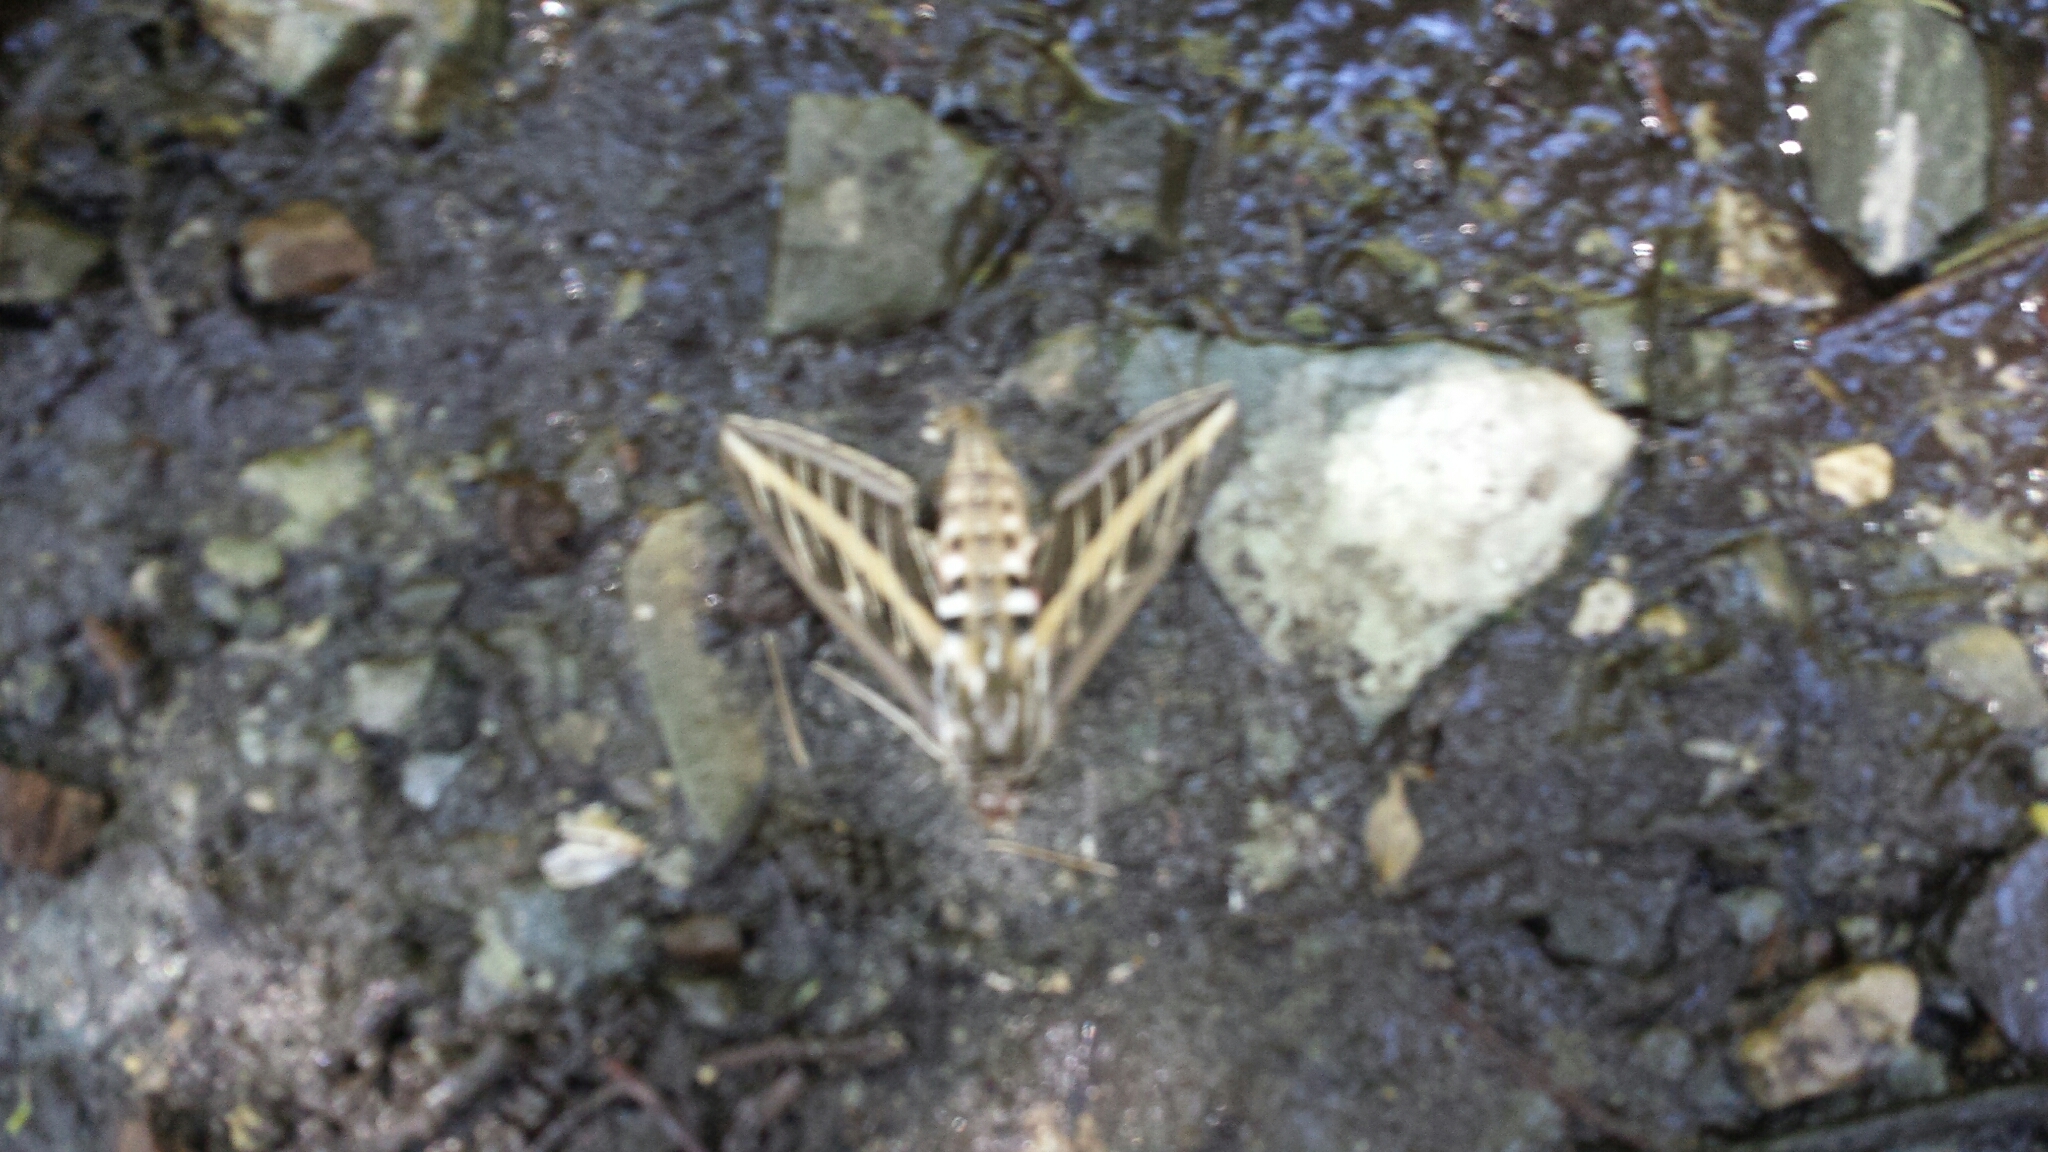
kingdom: Animalia
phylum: Arthropoda
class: Insecta
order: Lepidoptera
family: Sphingidae
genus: Hyles
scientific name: Hyles lineata
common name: White-lined sphinx
